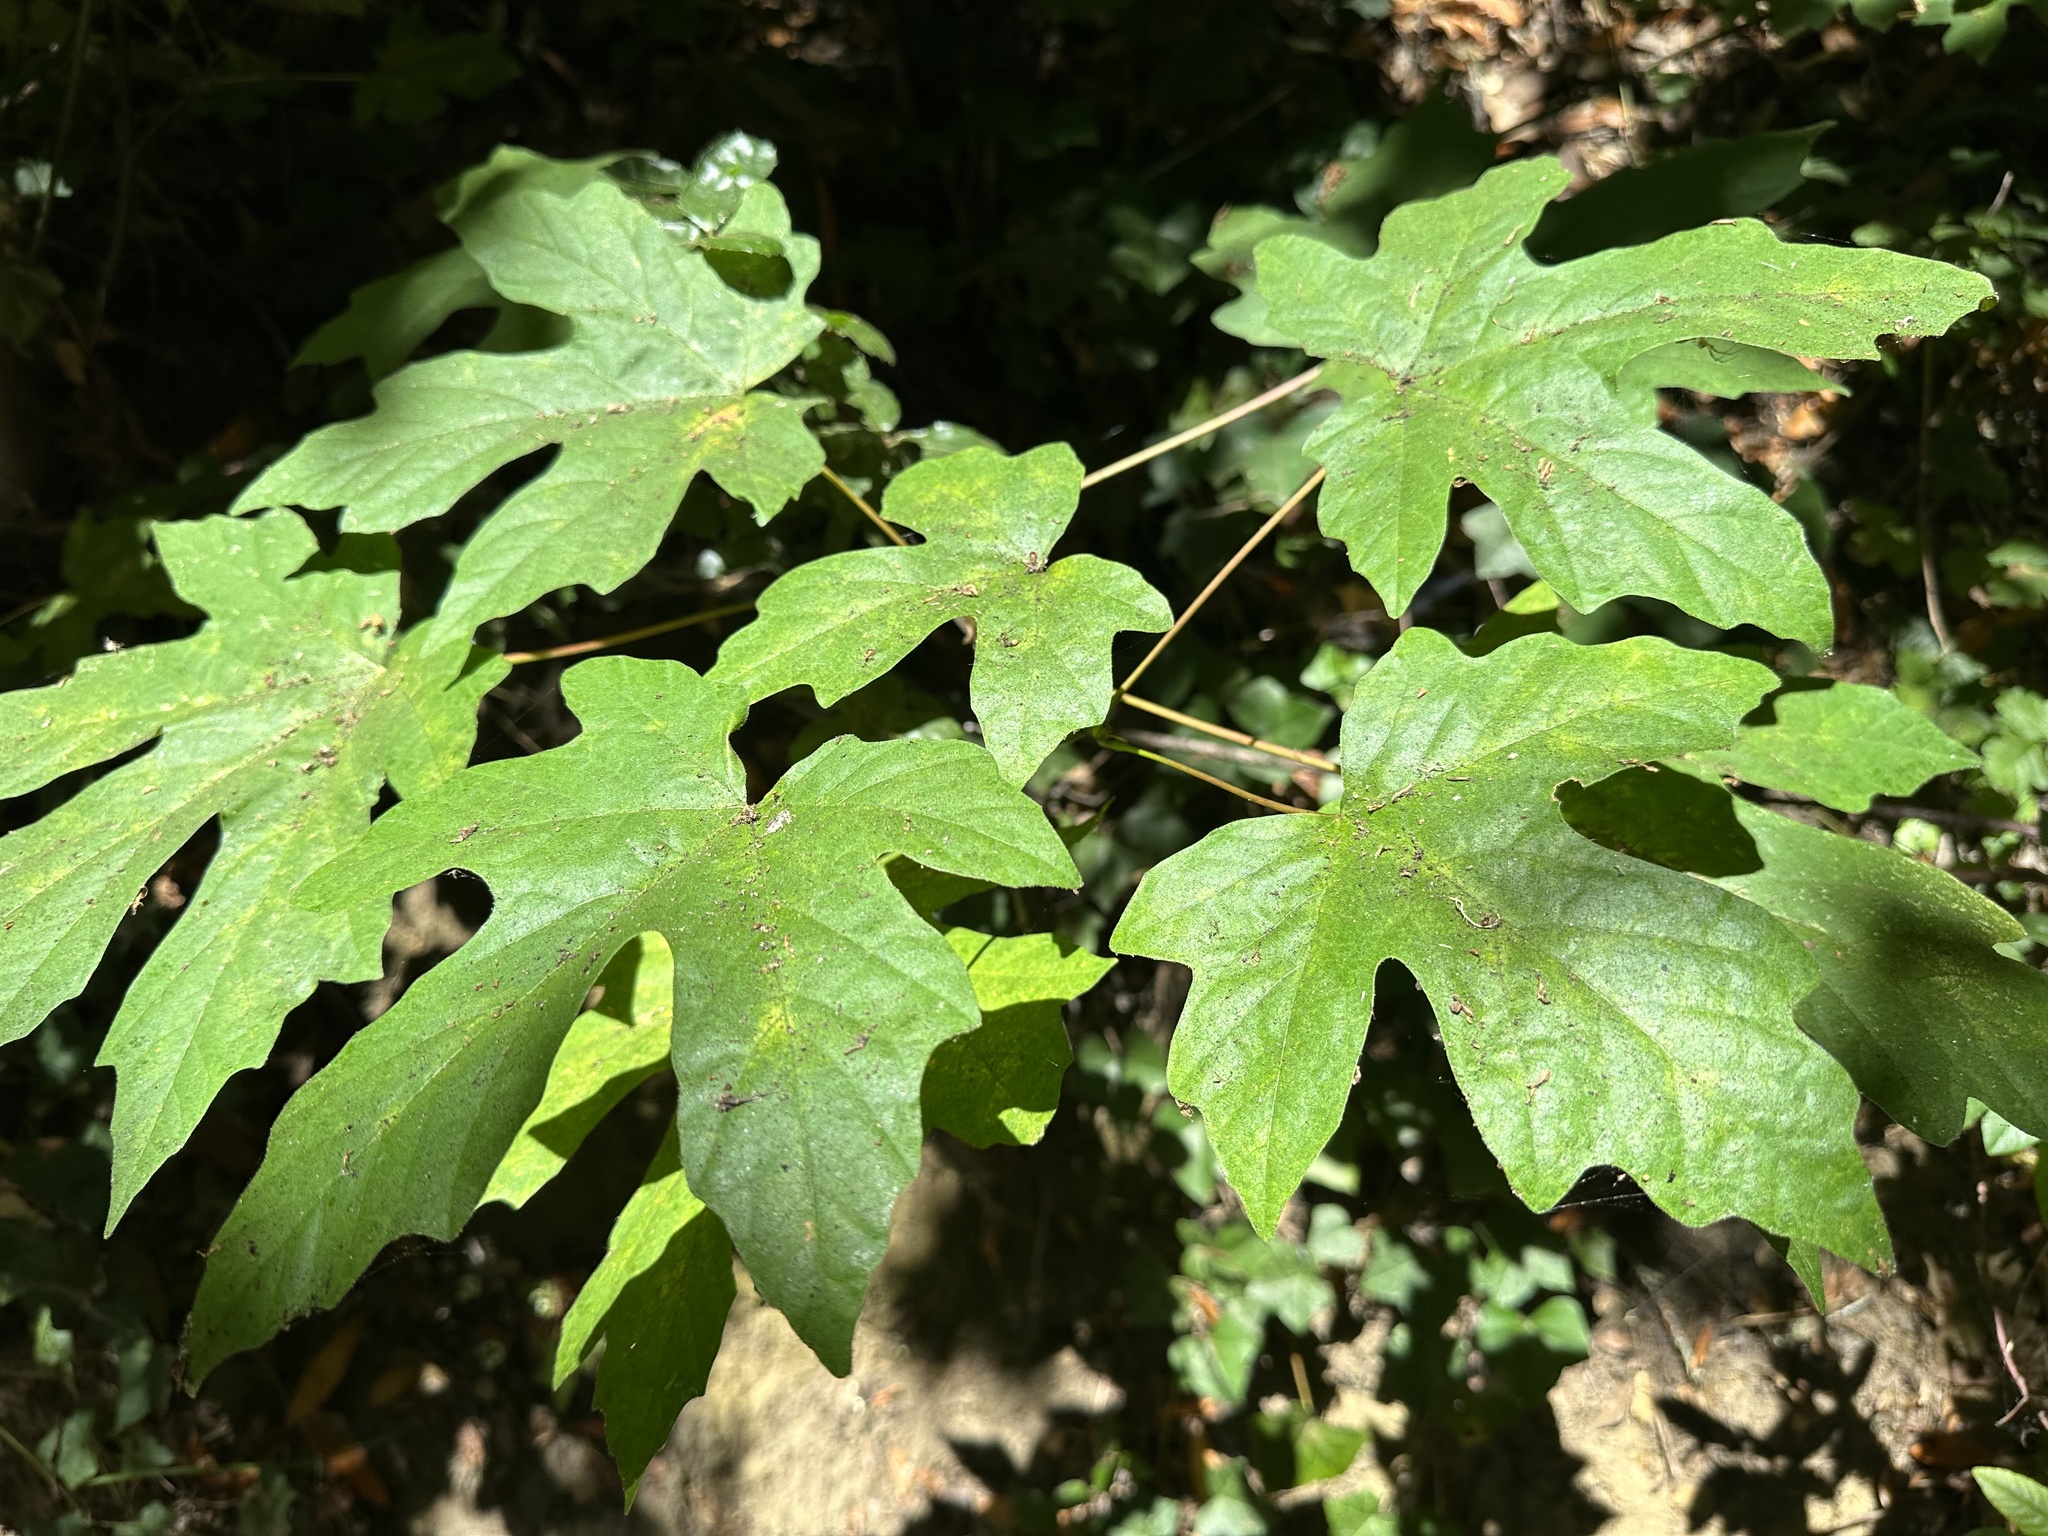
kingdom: Plantae
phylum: Tracheophyta
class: Magnoliopsida
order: Sapindales
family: Sapindaceae
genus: Acer
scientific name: Acer macrophyllum
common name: Oregon maple
